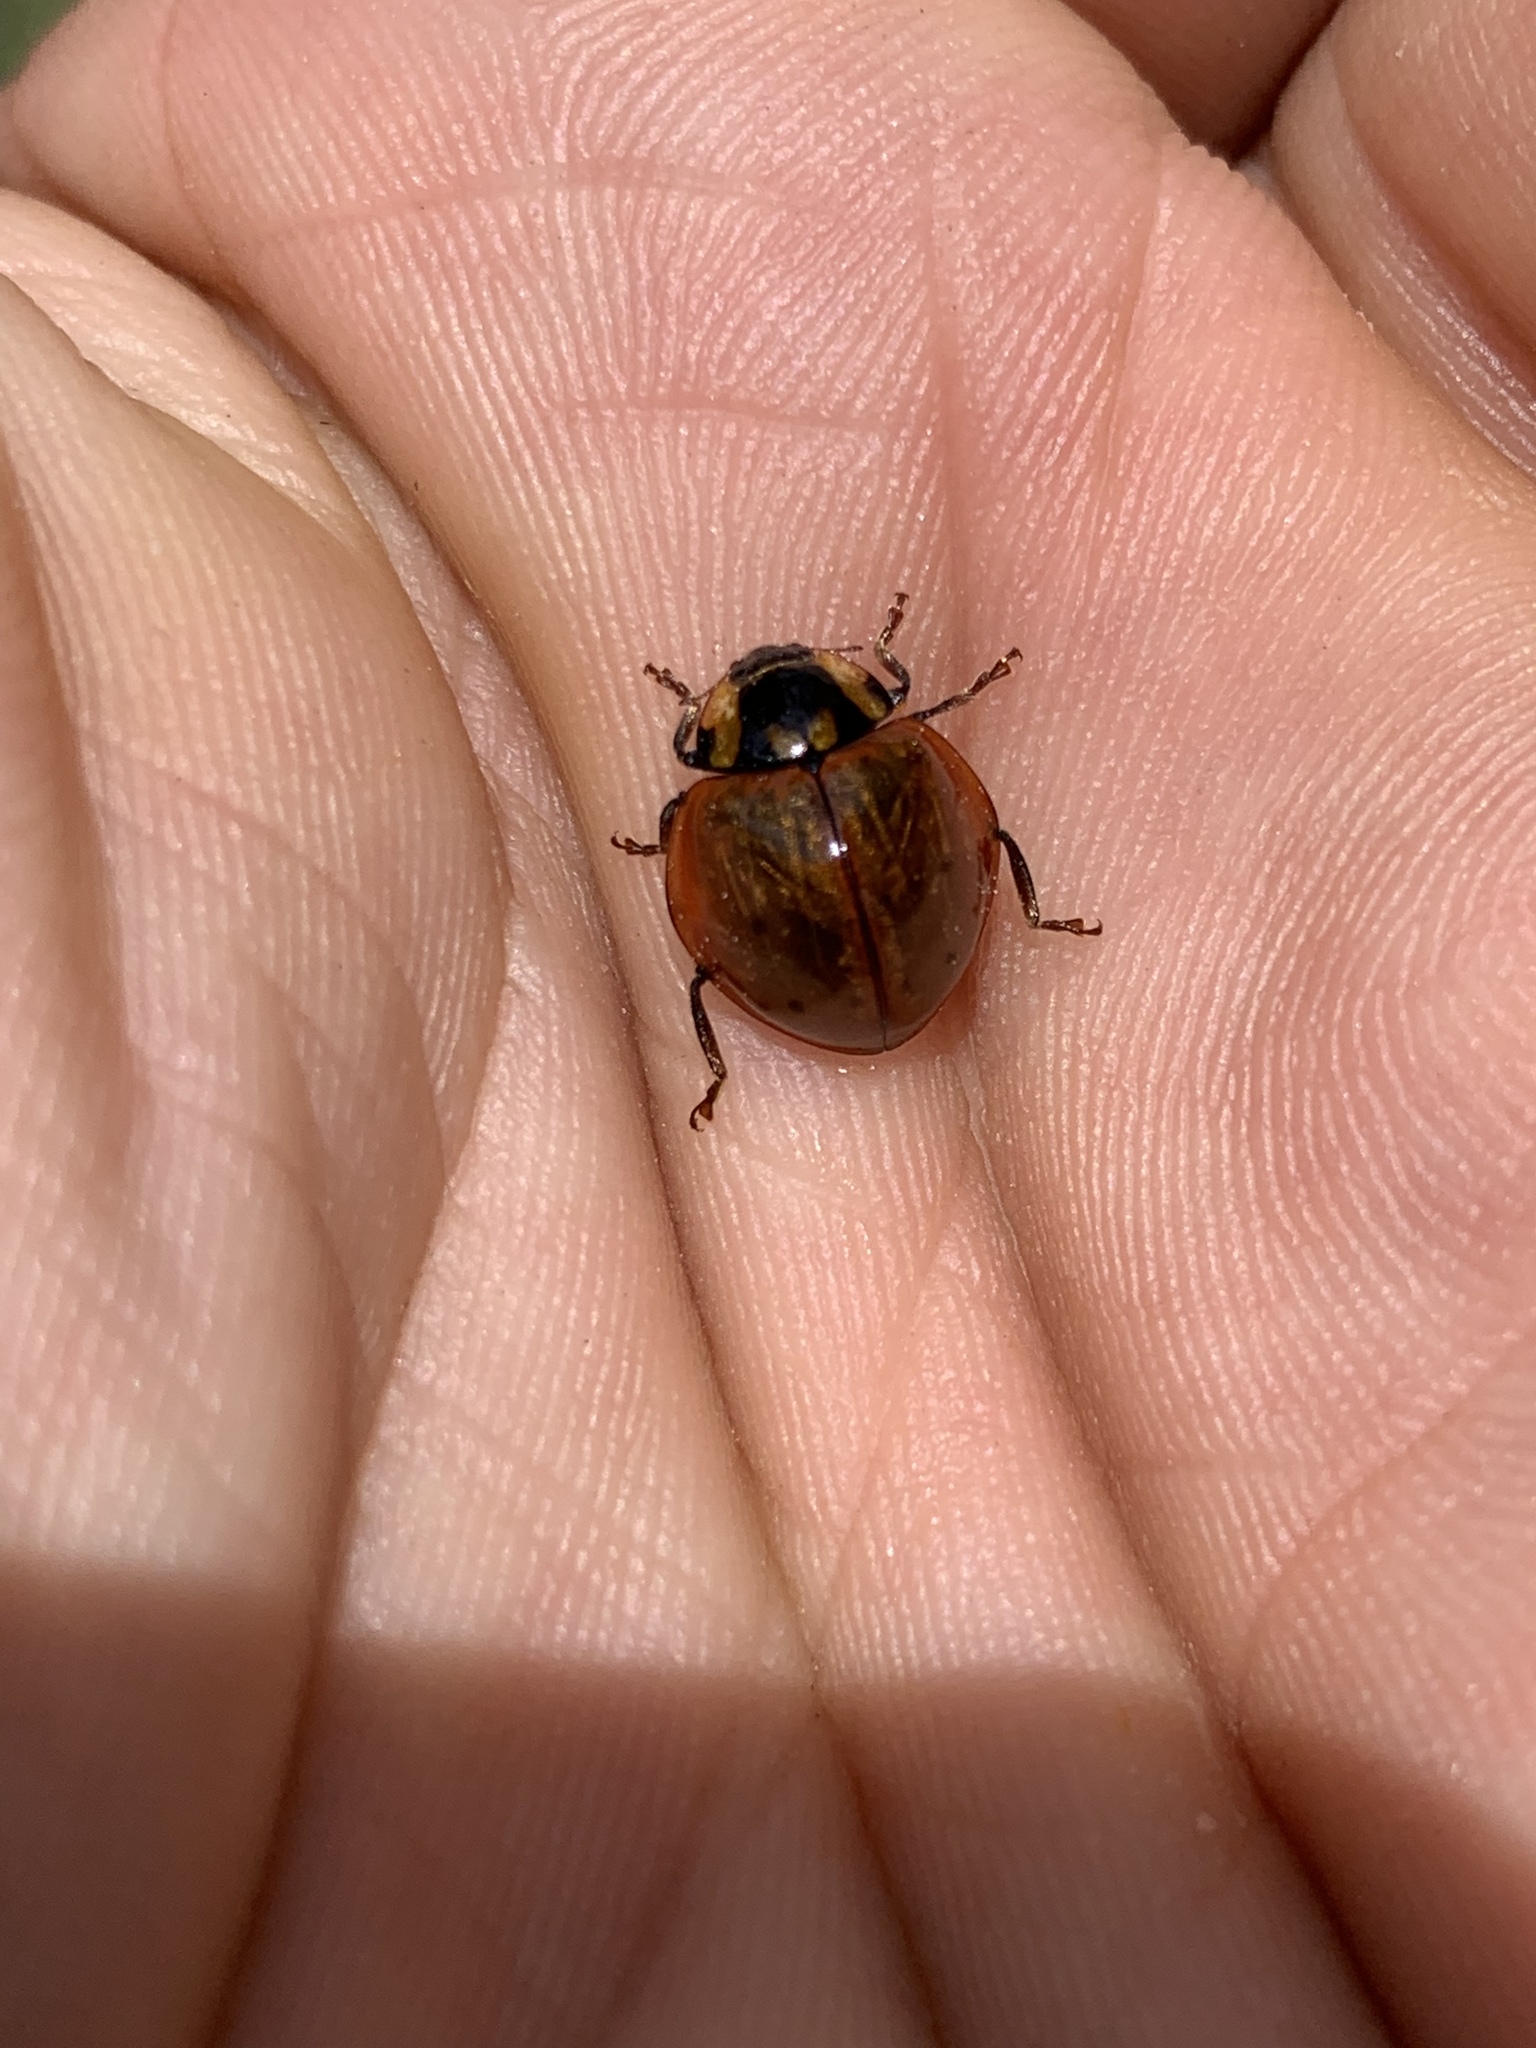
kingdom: Animalia
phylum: Arthropoda
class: Insecta
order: Coleoptera
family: Coccinellidae
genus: Anatis
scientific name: Anatis rathvoni
